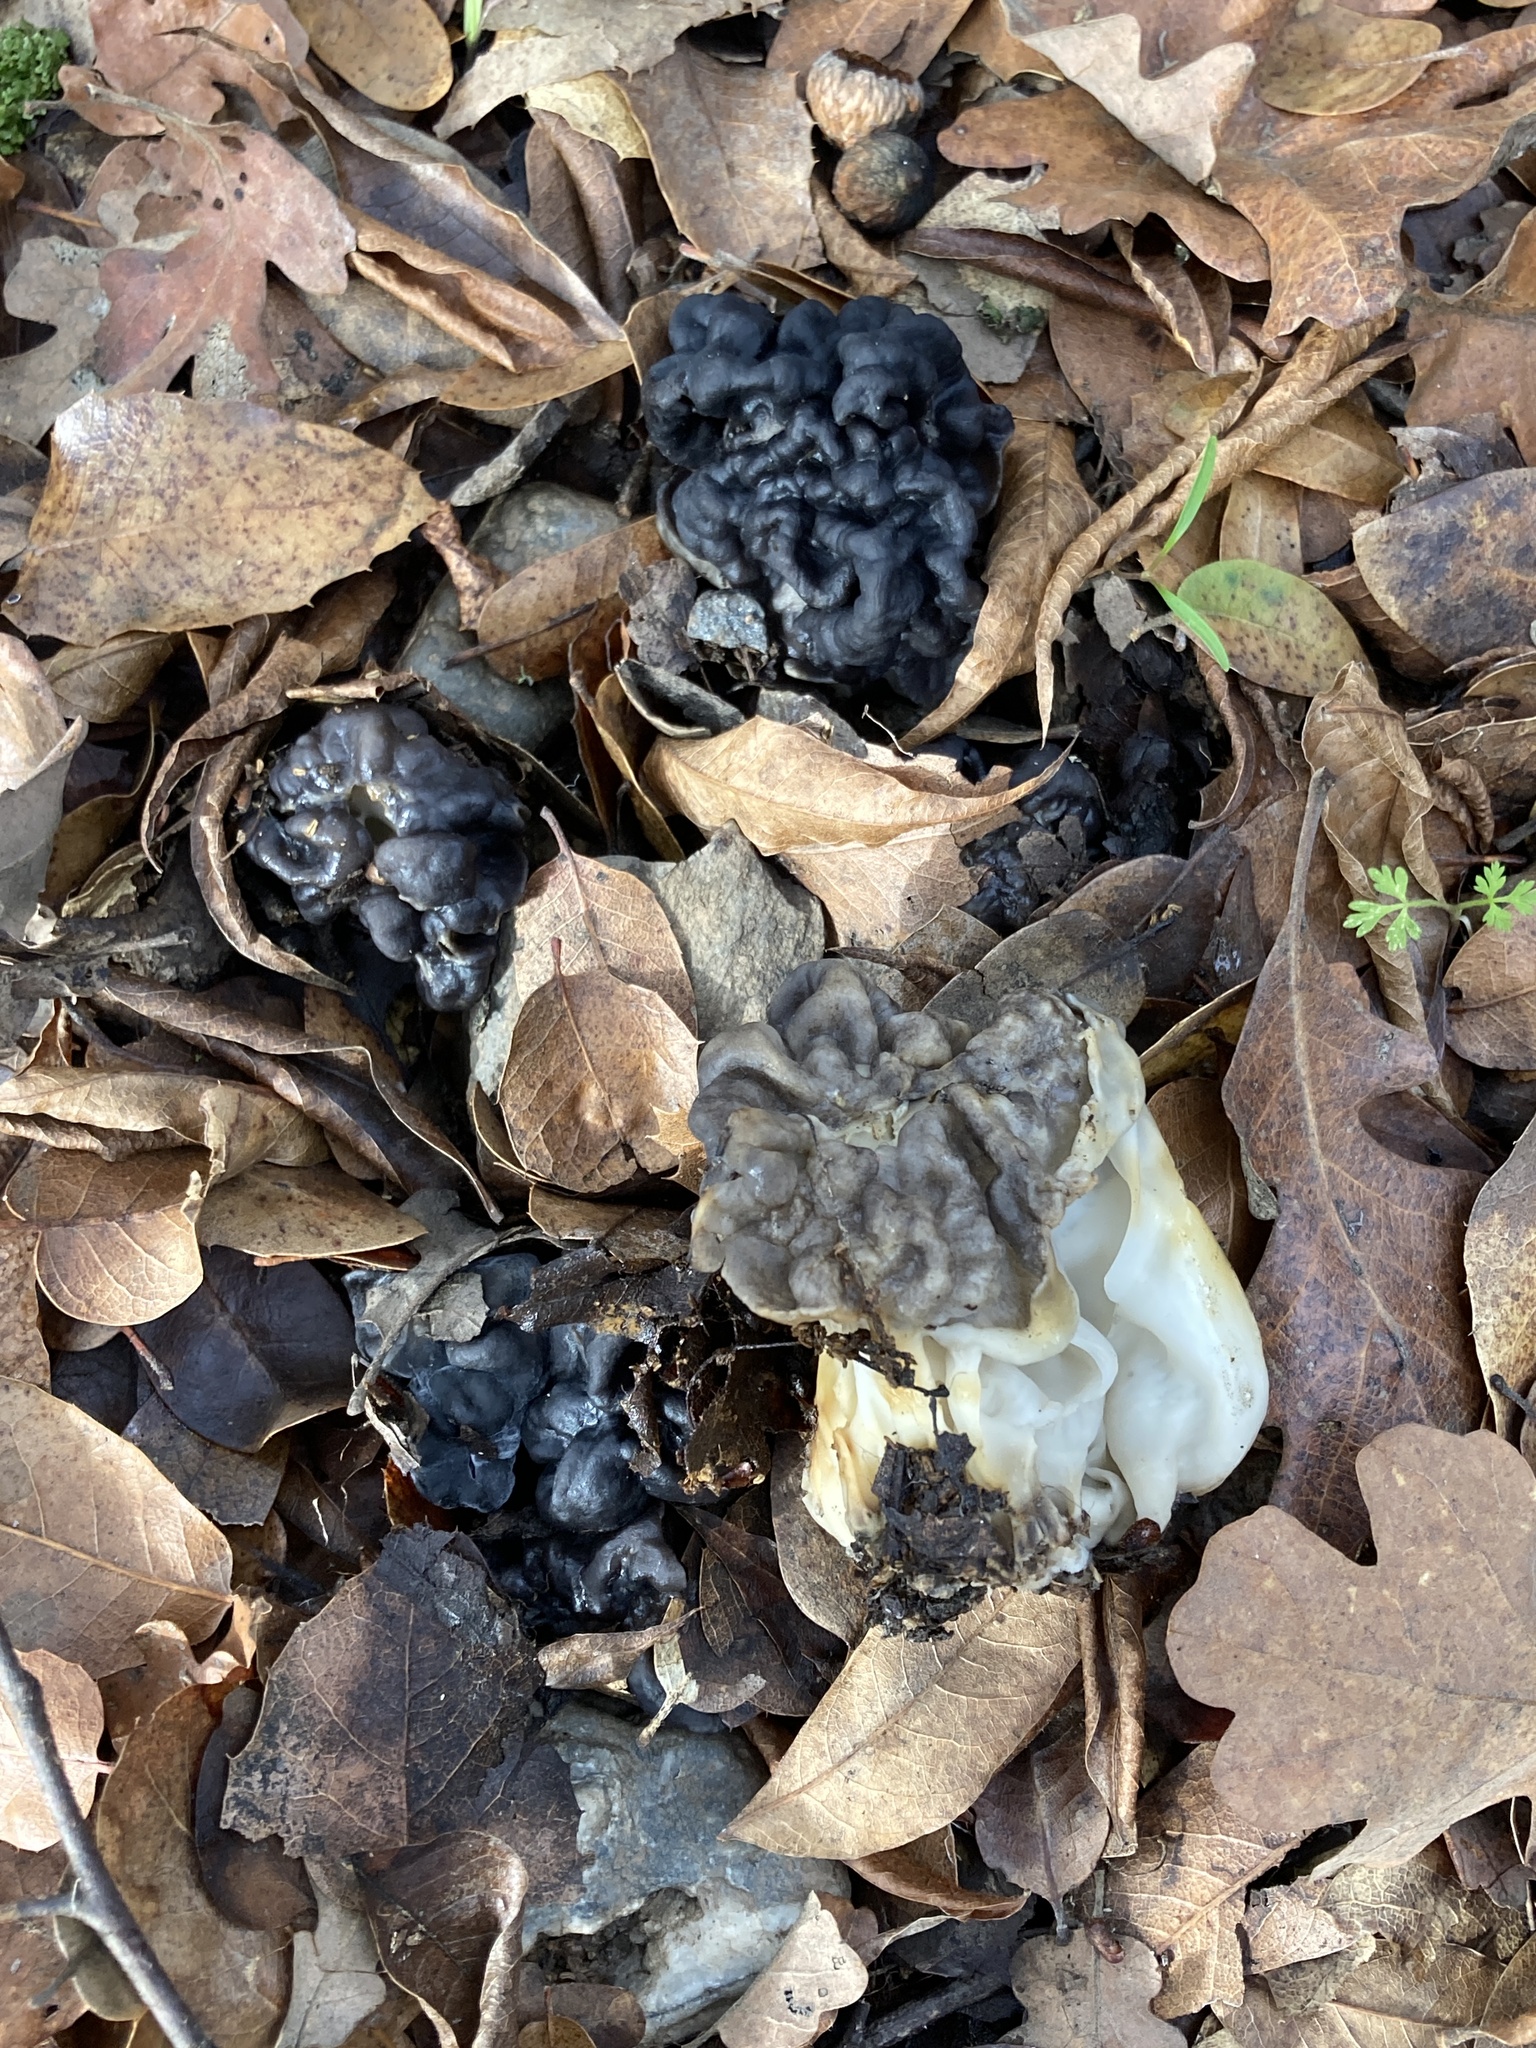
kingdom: Fungi
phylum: Ascomycota
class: Pezizomycetes
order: Pezizales
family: Helvellaceae
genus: Helvella
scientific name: Helvella dryophila
